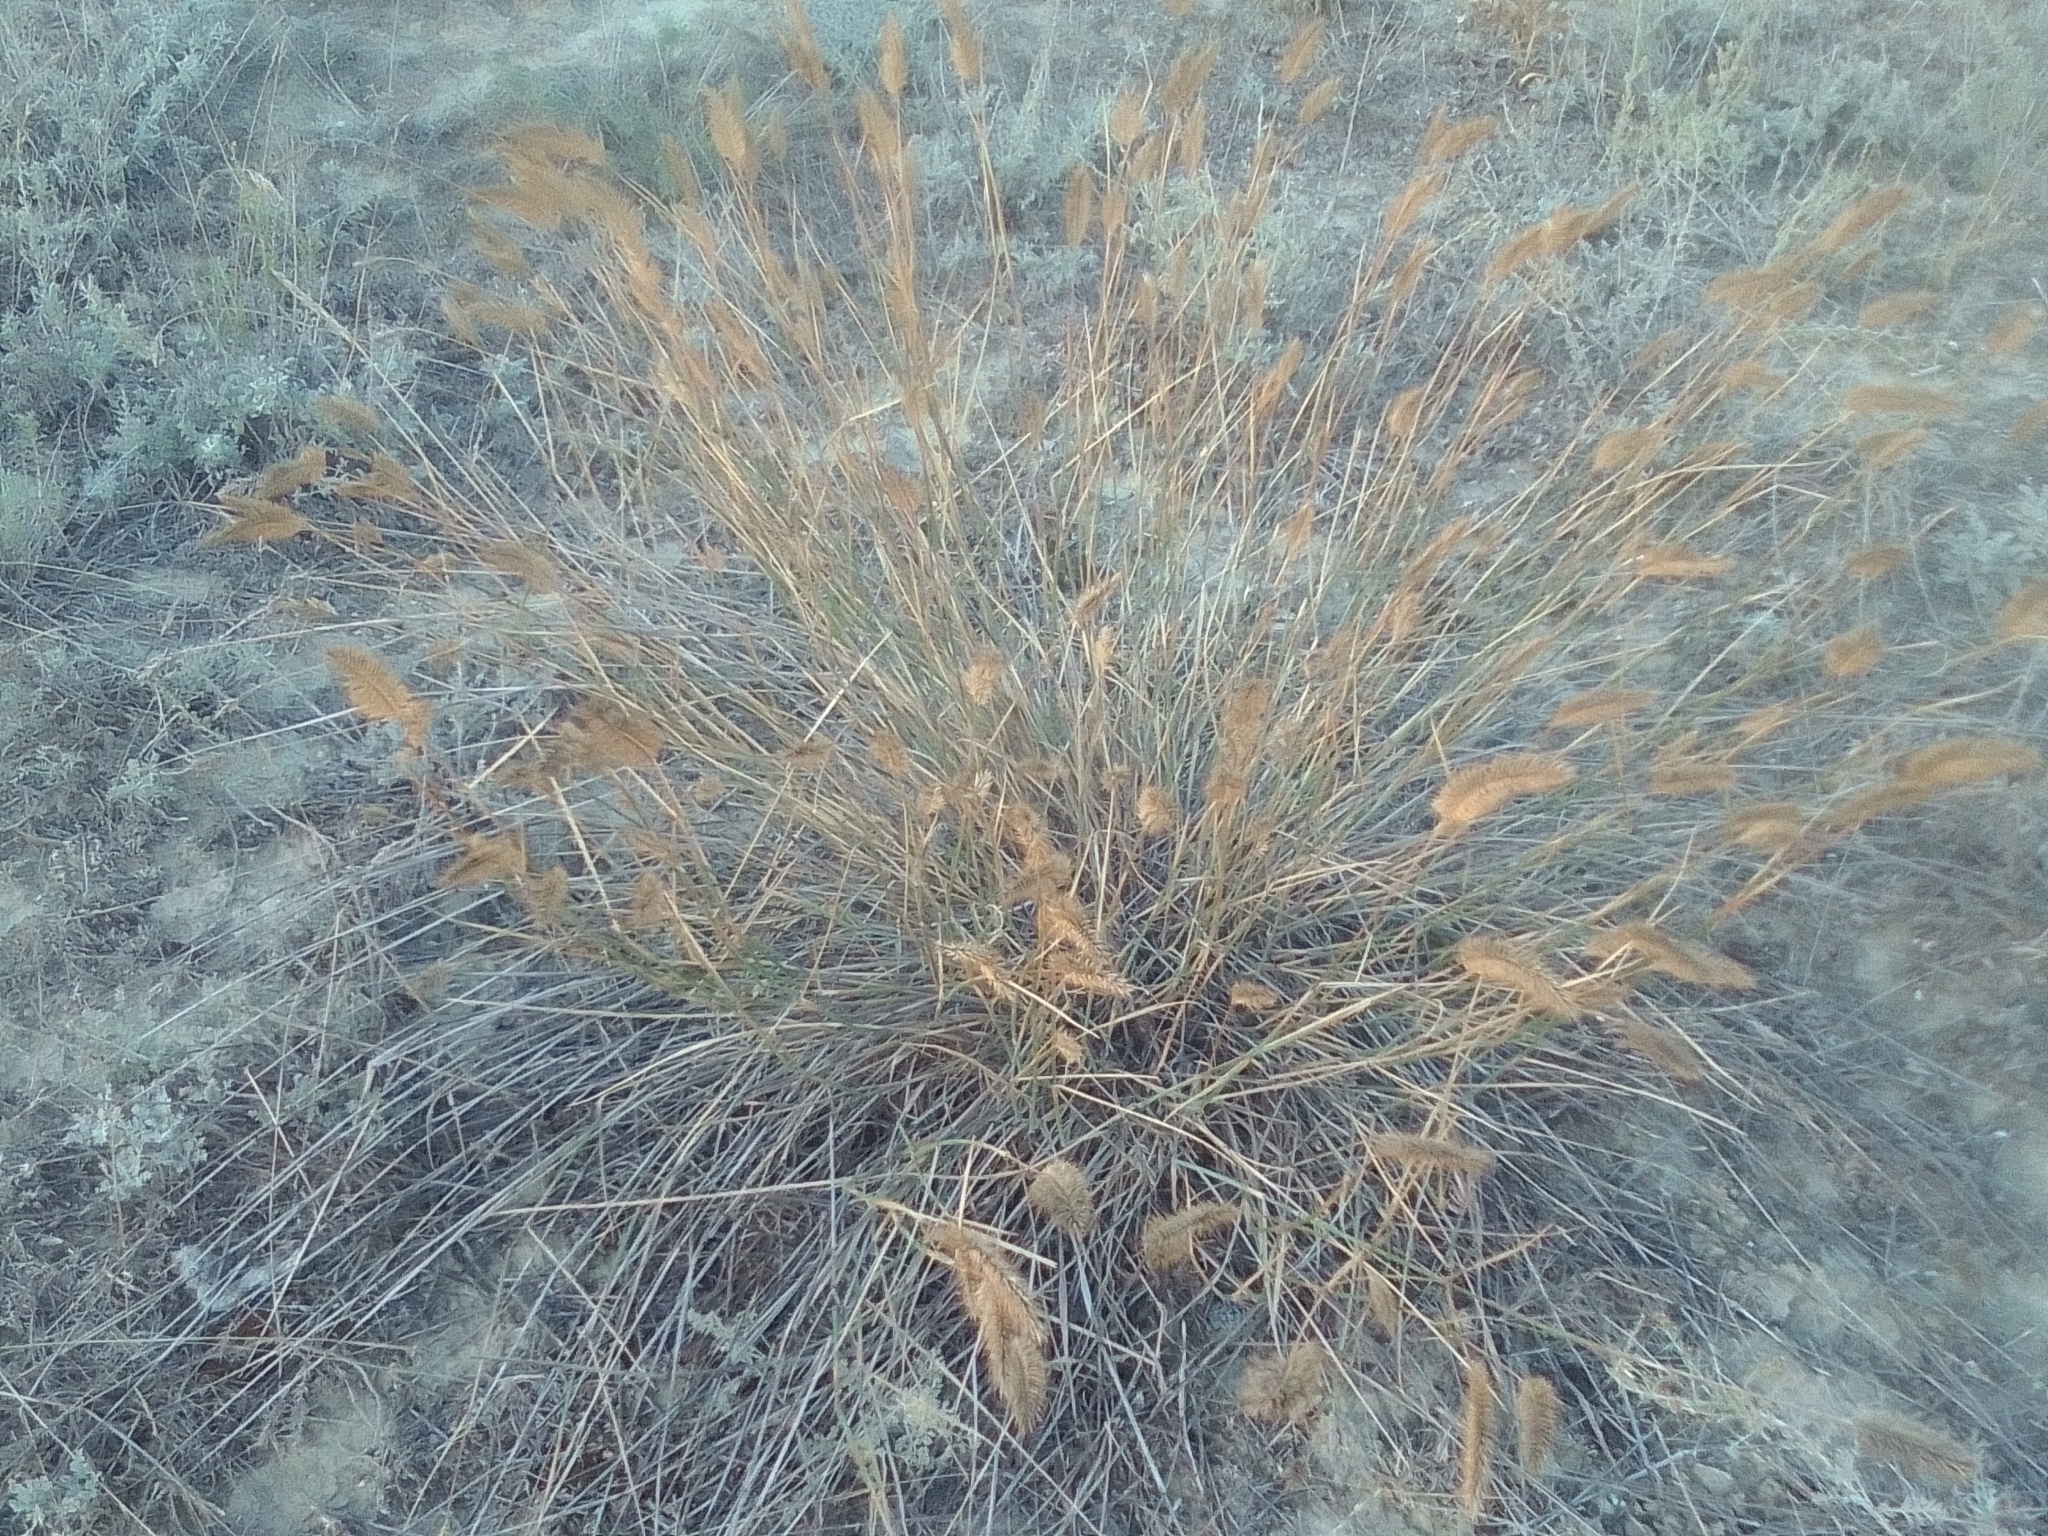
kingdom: Plantae
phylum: Tracheophyta
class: Liliopsida
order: Poales
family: Poaceae
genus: Agropyron
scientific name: Agropyron cristatum
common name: Crested wheatgrass
